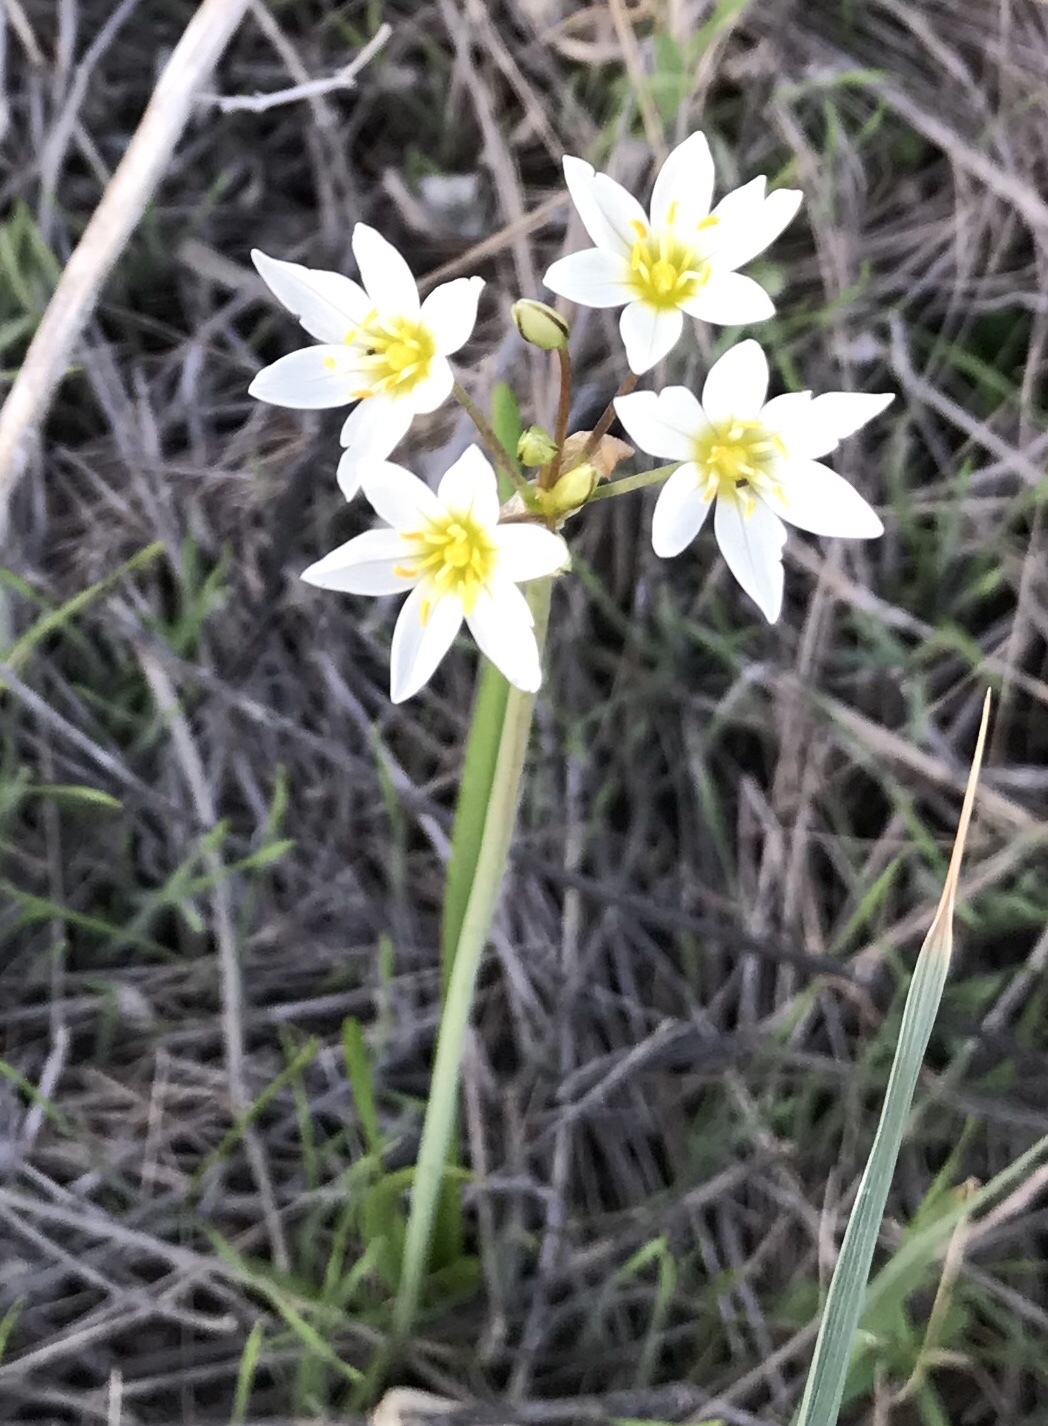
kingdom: Plantae
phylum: Tracheophyta
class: Liliopsida
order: Asparagales
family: Amaryllidaceae
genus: Nothoscordum
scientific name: Nothoscordum bivalve
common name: Crow-poison
